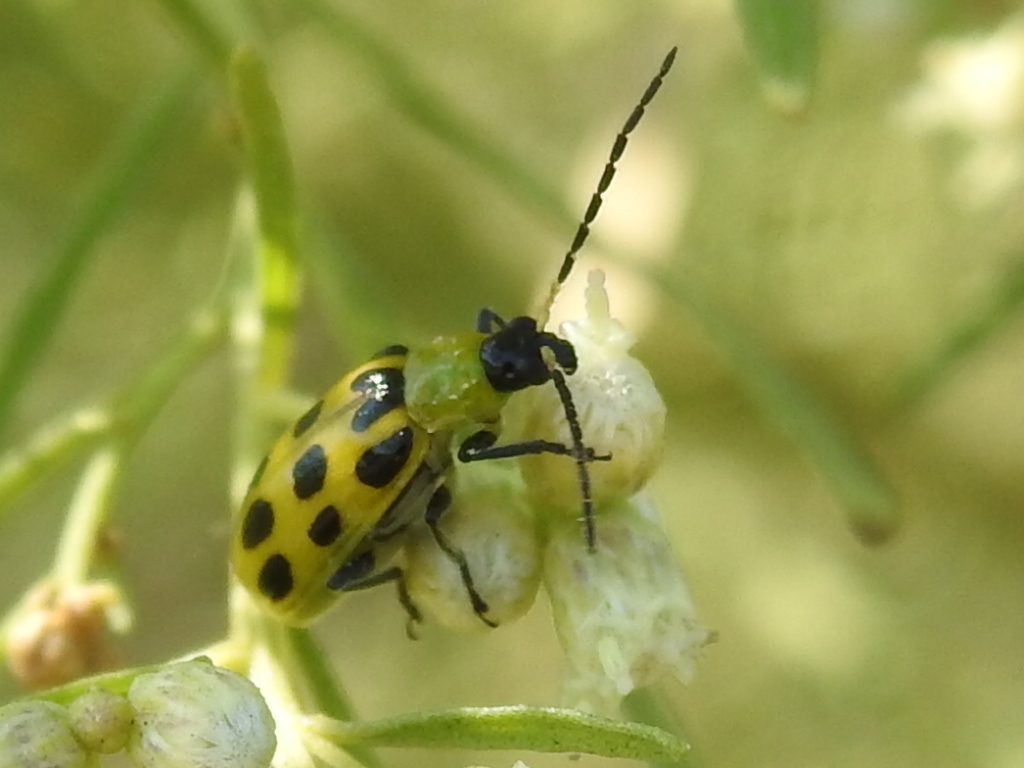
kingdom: Animalia
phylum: Arthropoda
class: Insecta
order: Coleoptera
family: Chrysomelidae
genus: Diabrotica
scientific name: Diabrotica undecimpunctata
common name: Spotted cucumber beetle
